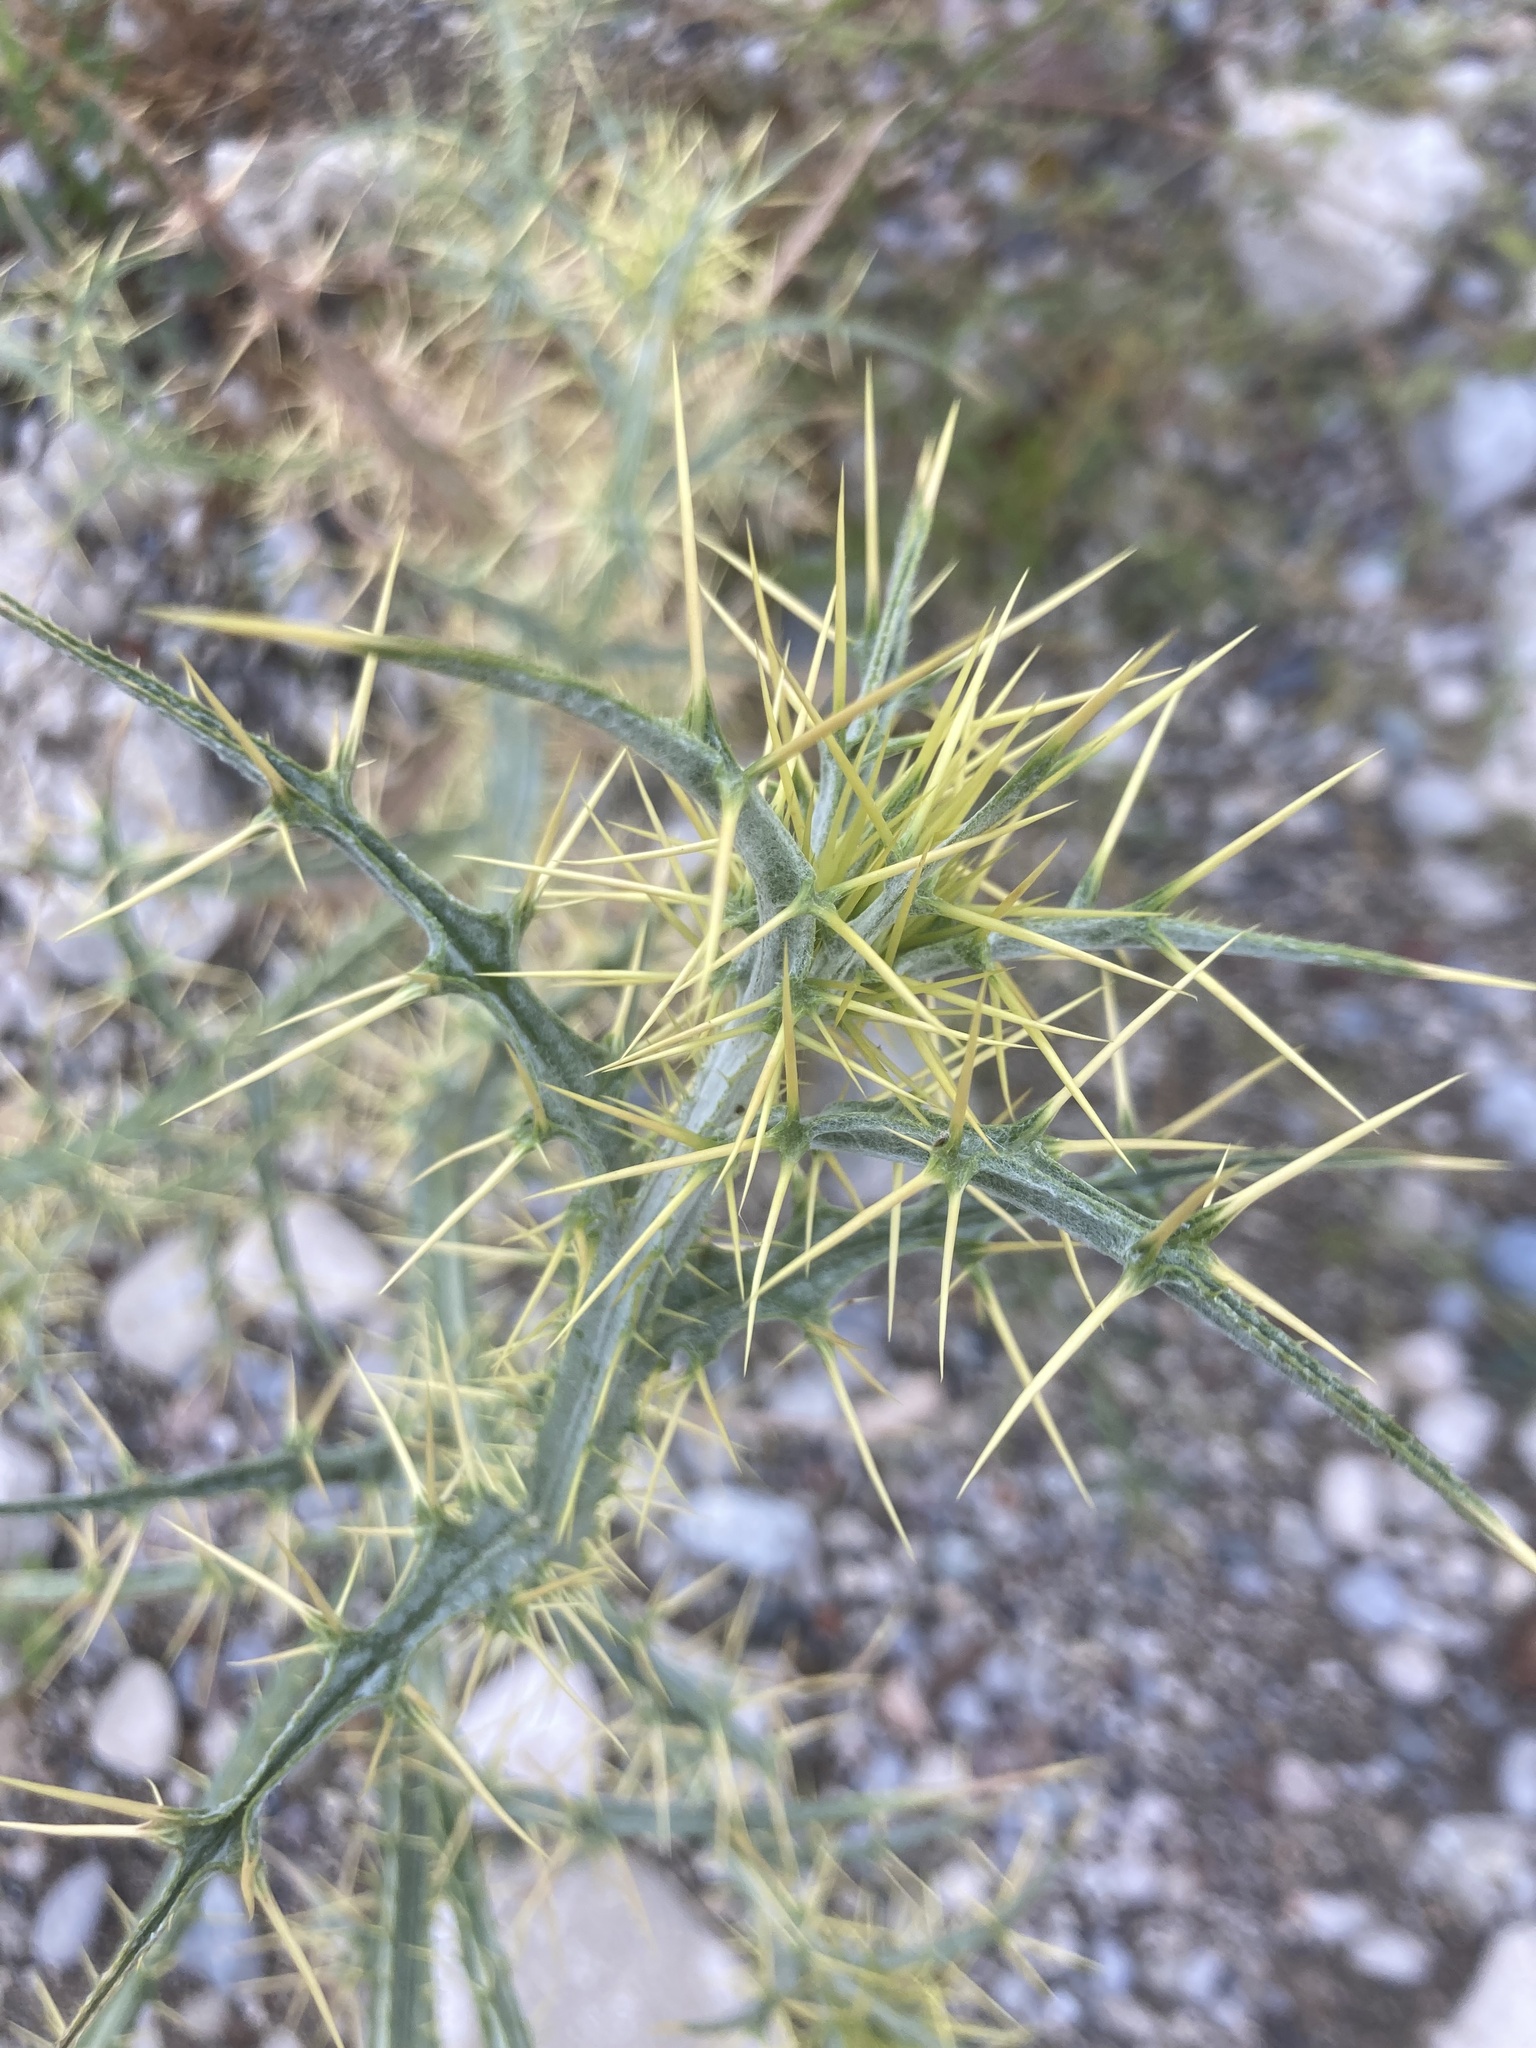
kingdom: Plantae
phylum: Tracheophyta
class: Magnoliopsida
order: Asterales
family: Asteraceae
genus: Picnomon
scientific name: Picnomon acarna
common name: Soldier thistle
